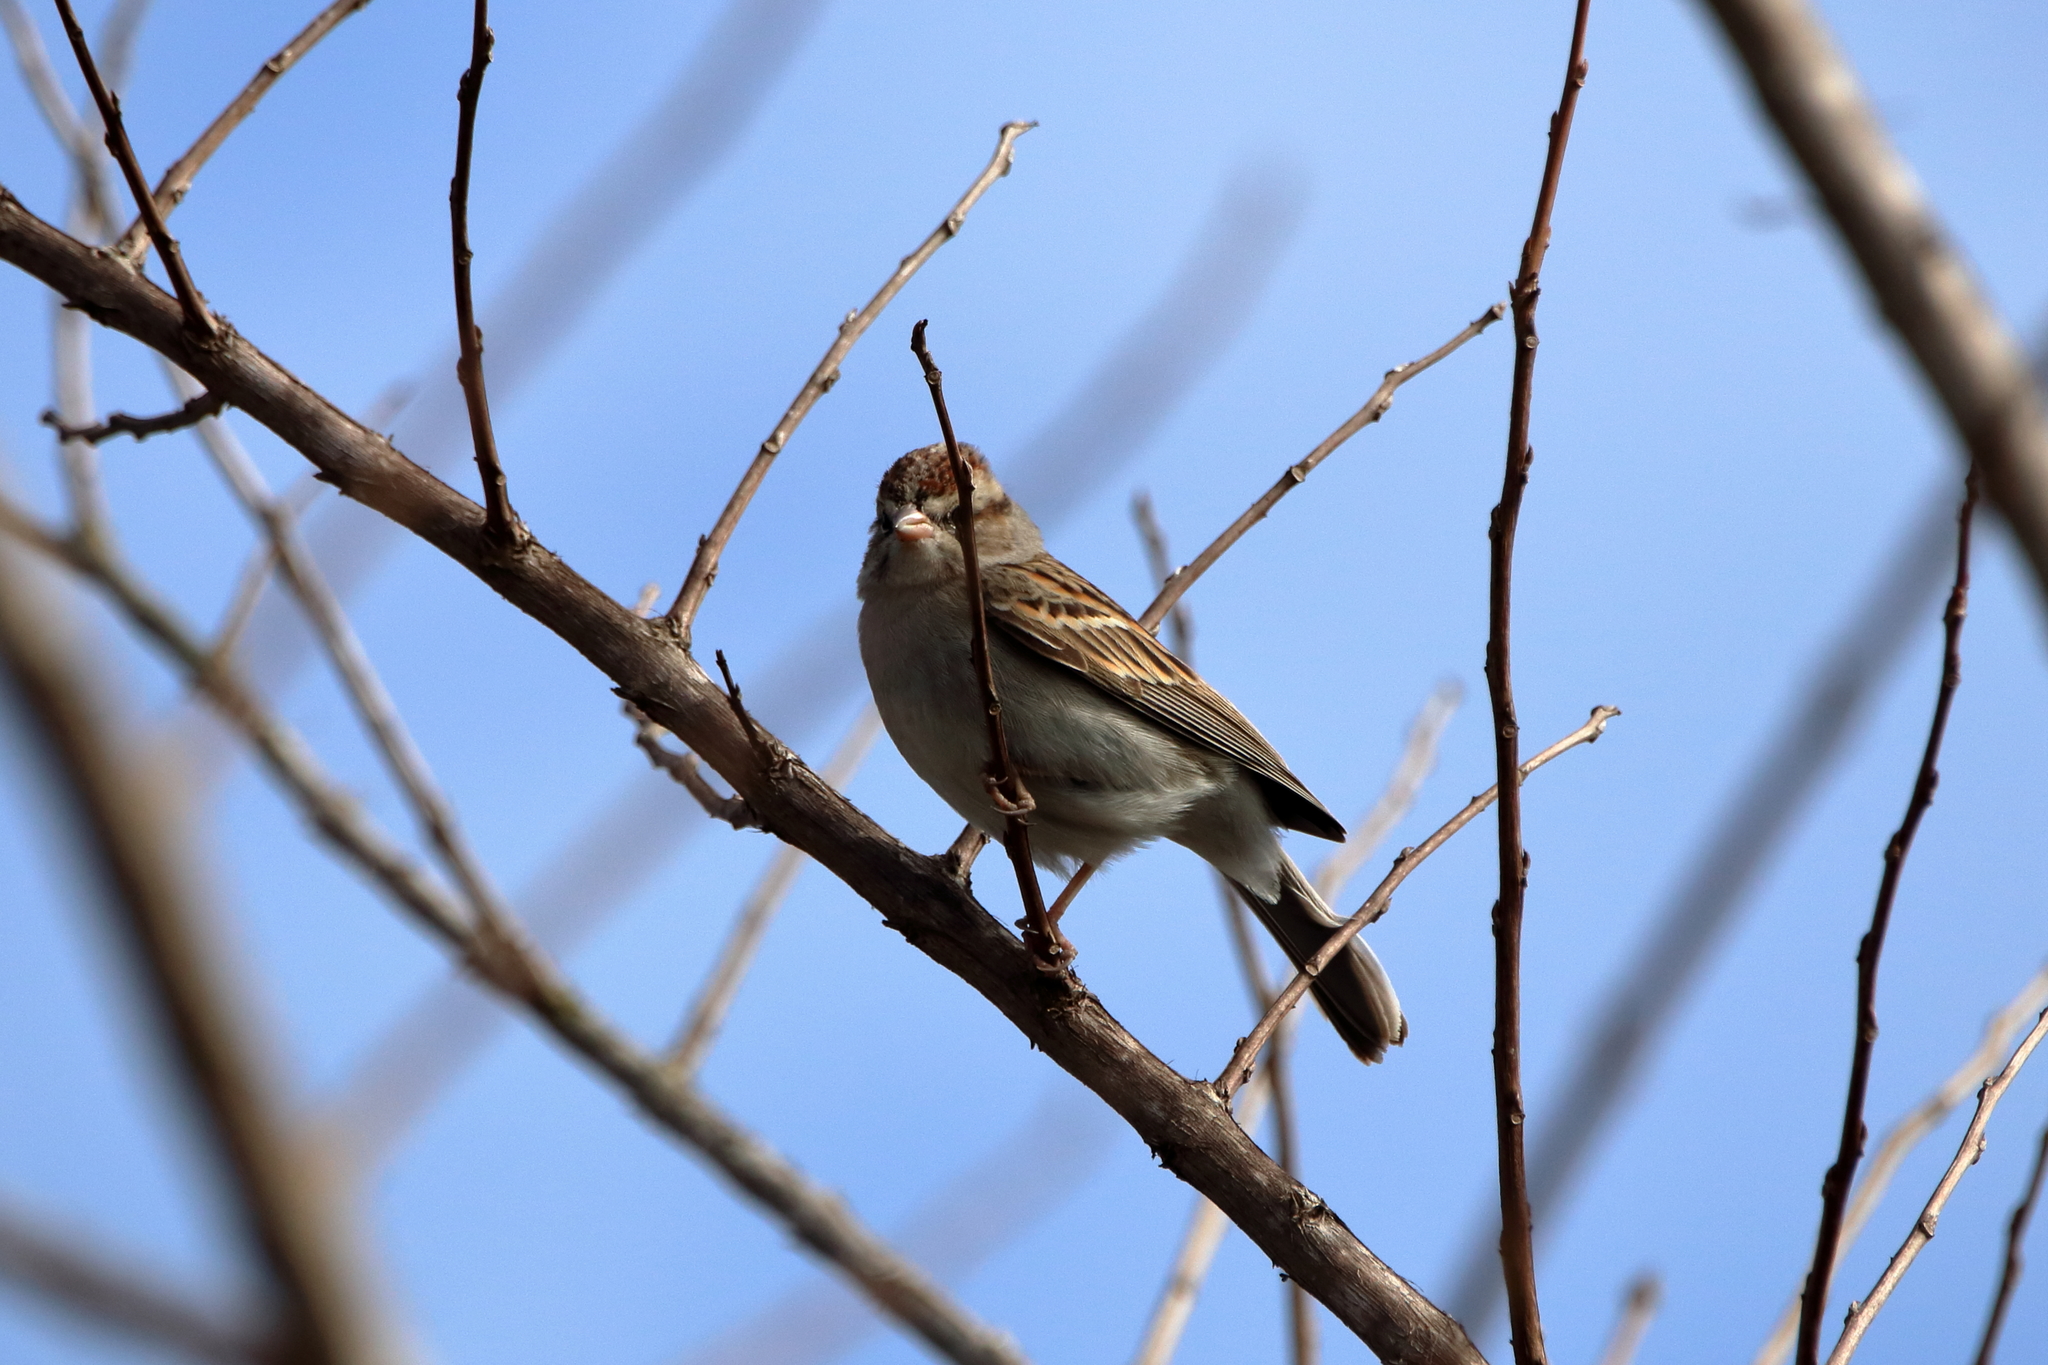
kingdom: Animalia
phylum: Chordata
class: Aves
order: Passeriformes
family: Passerellidae
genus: Spizella
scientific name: Spizella passerina
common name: Chipping sparrow
